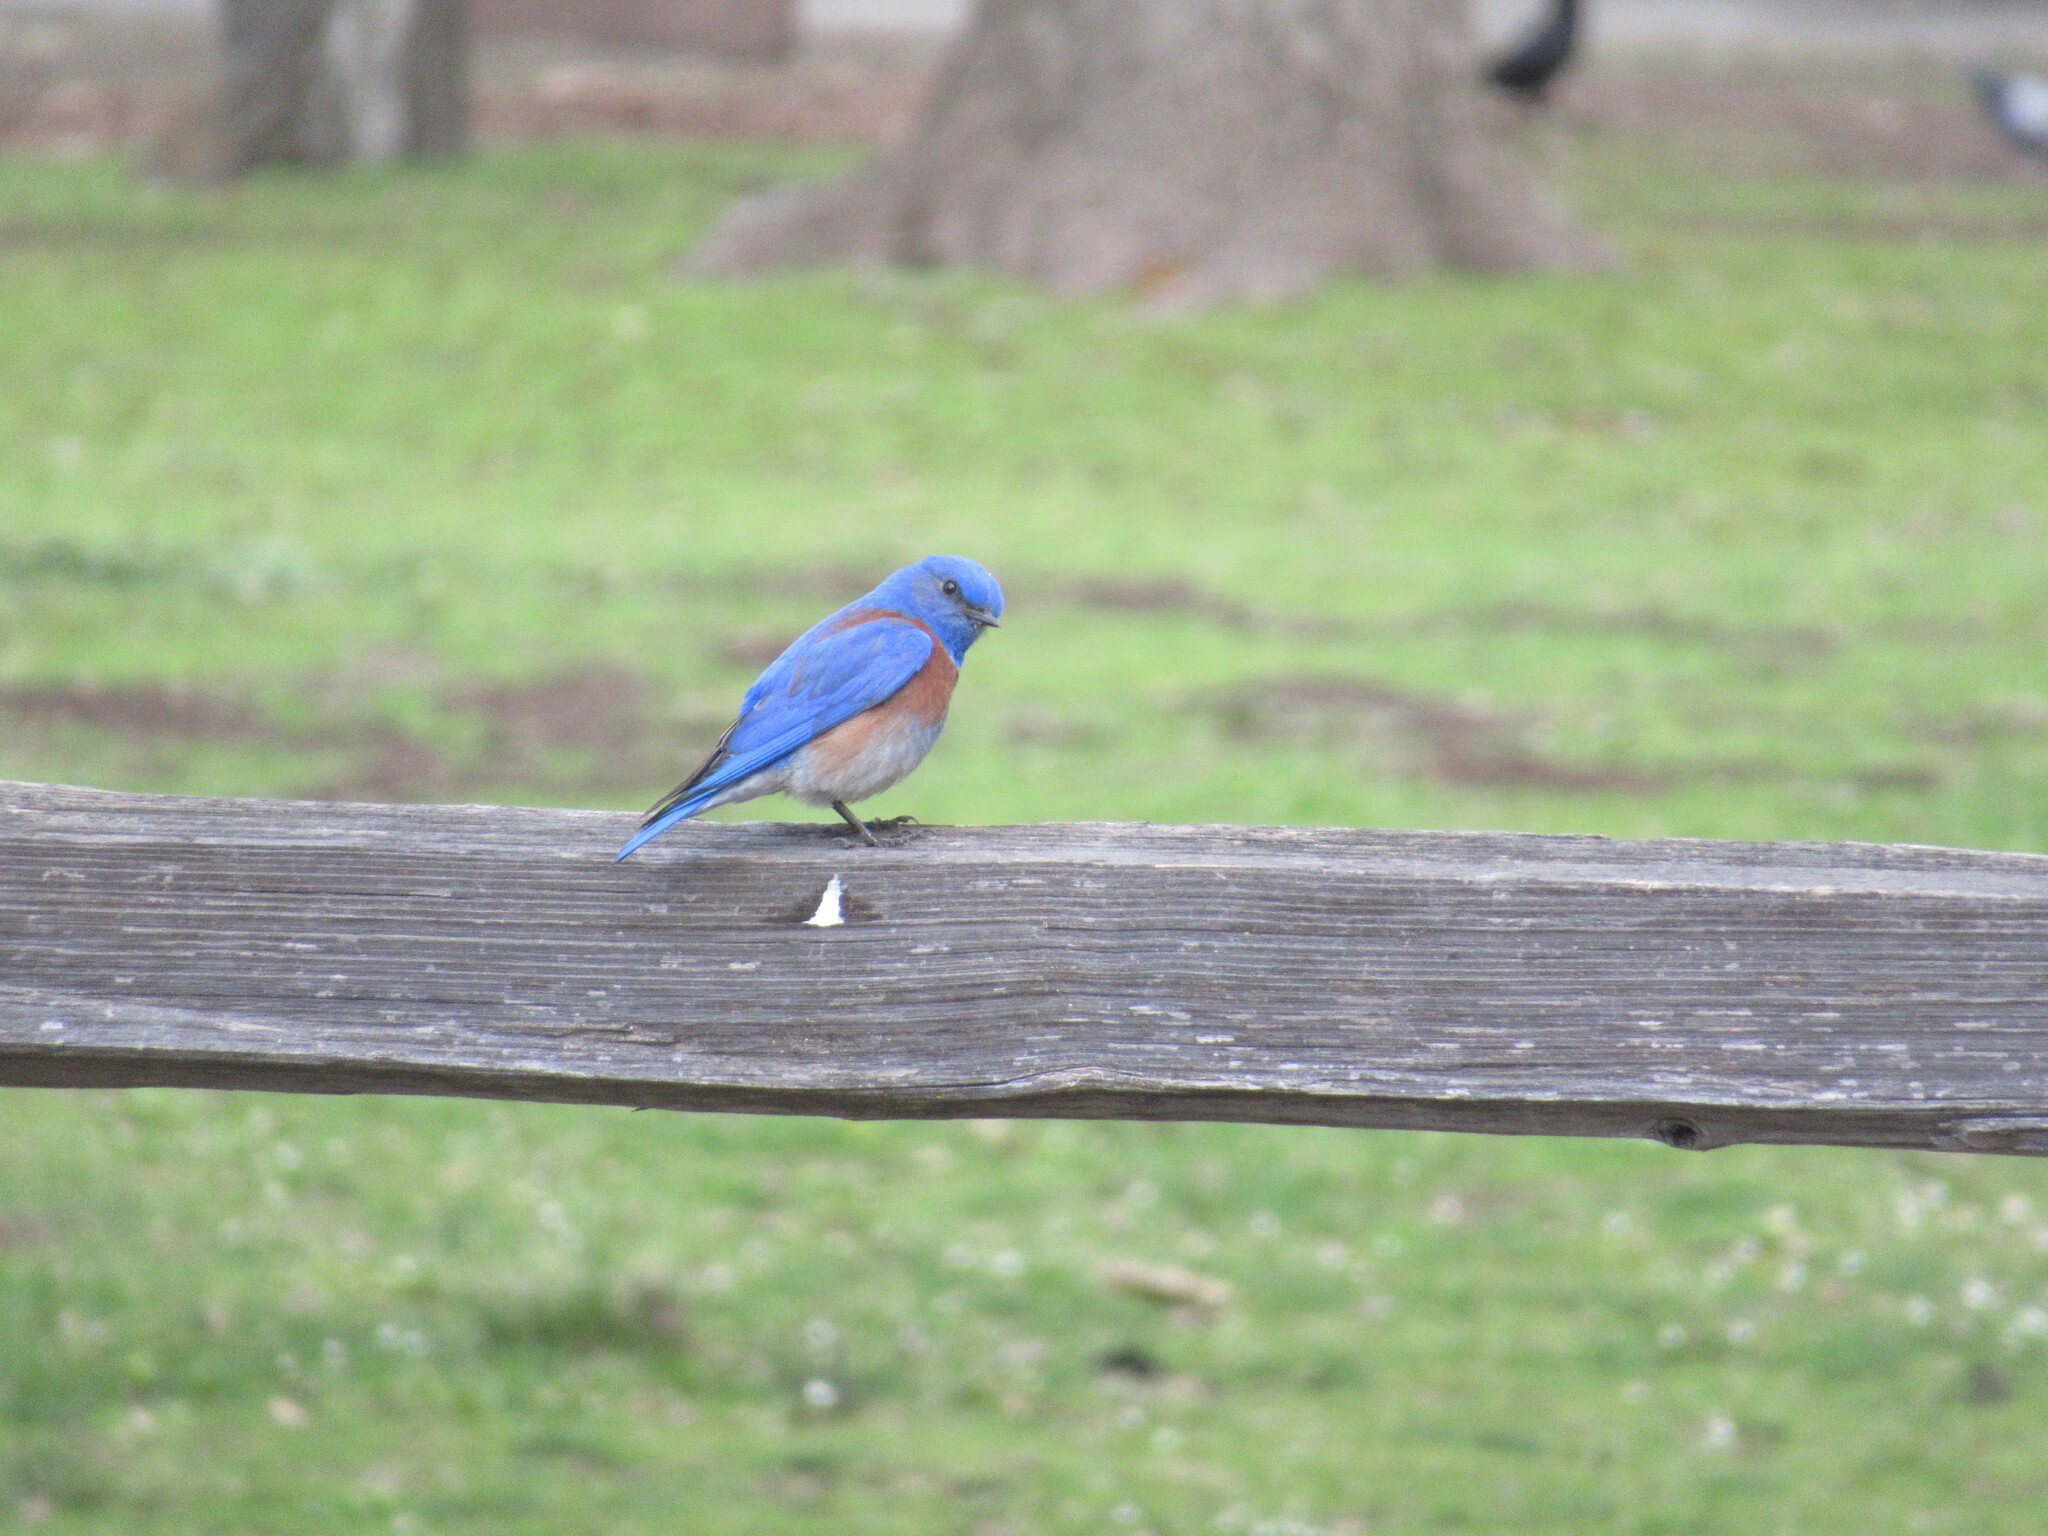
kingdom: Animalia
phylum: Chordata
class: Aves
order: Passeriformes
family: Turdidae
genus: Sialia
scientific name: Sialia mexicana
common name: Western bluebird
